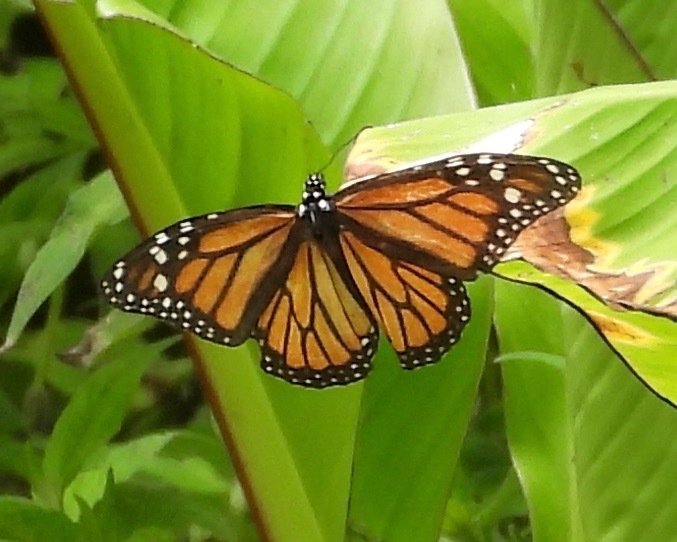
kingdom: Animalia
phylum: Arthropoda
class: Insecta
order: Lepidoptera
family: Nymphalidae
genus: Danaus
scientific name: Danaus plexippus
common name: Monarch
